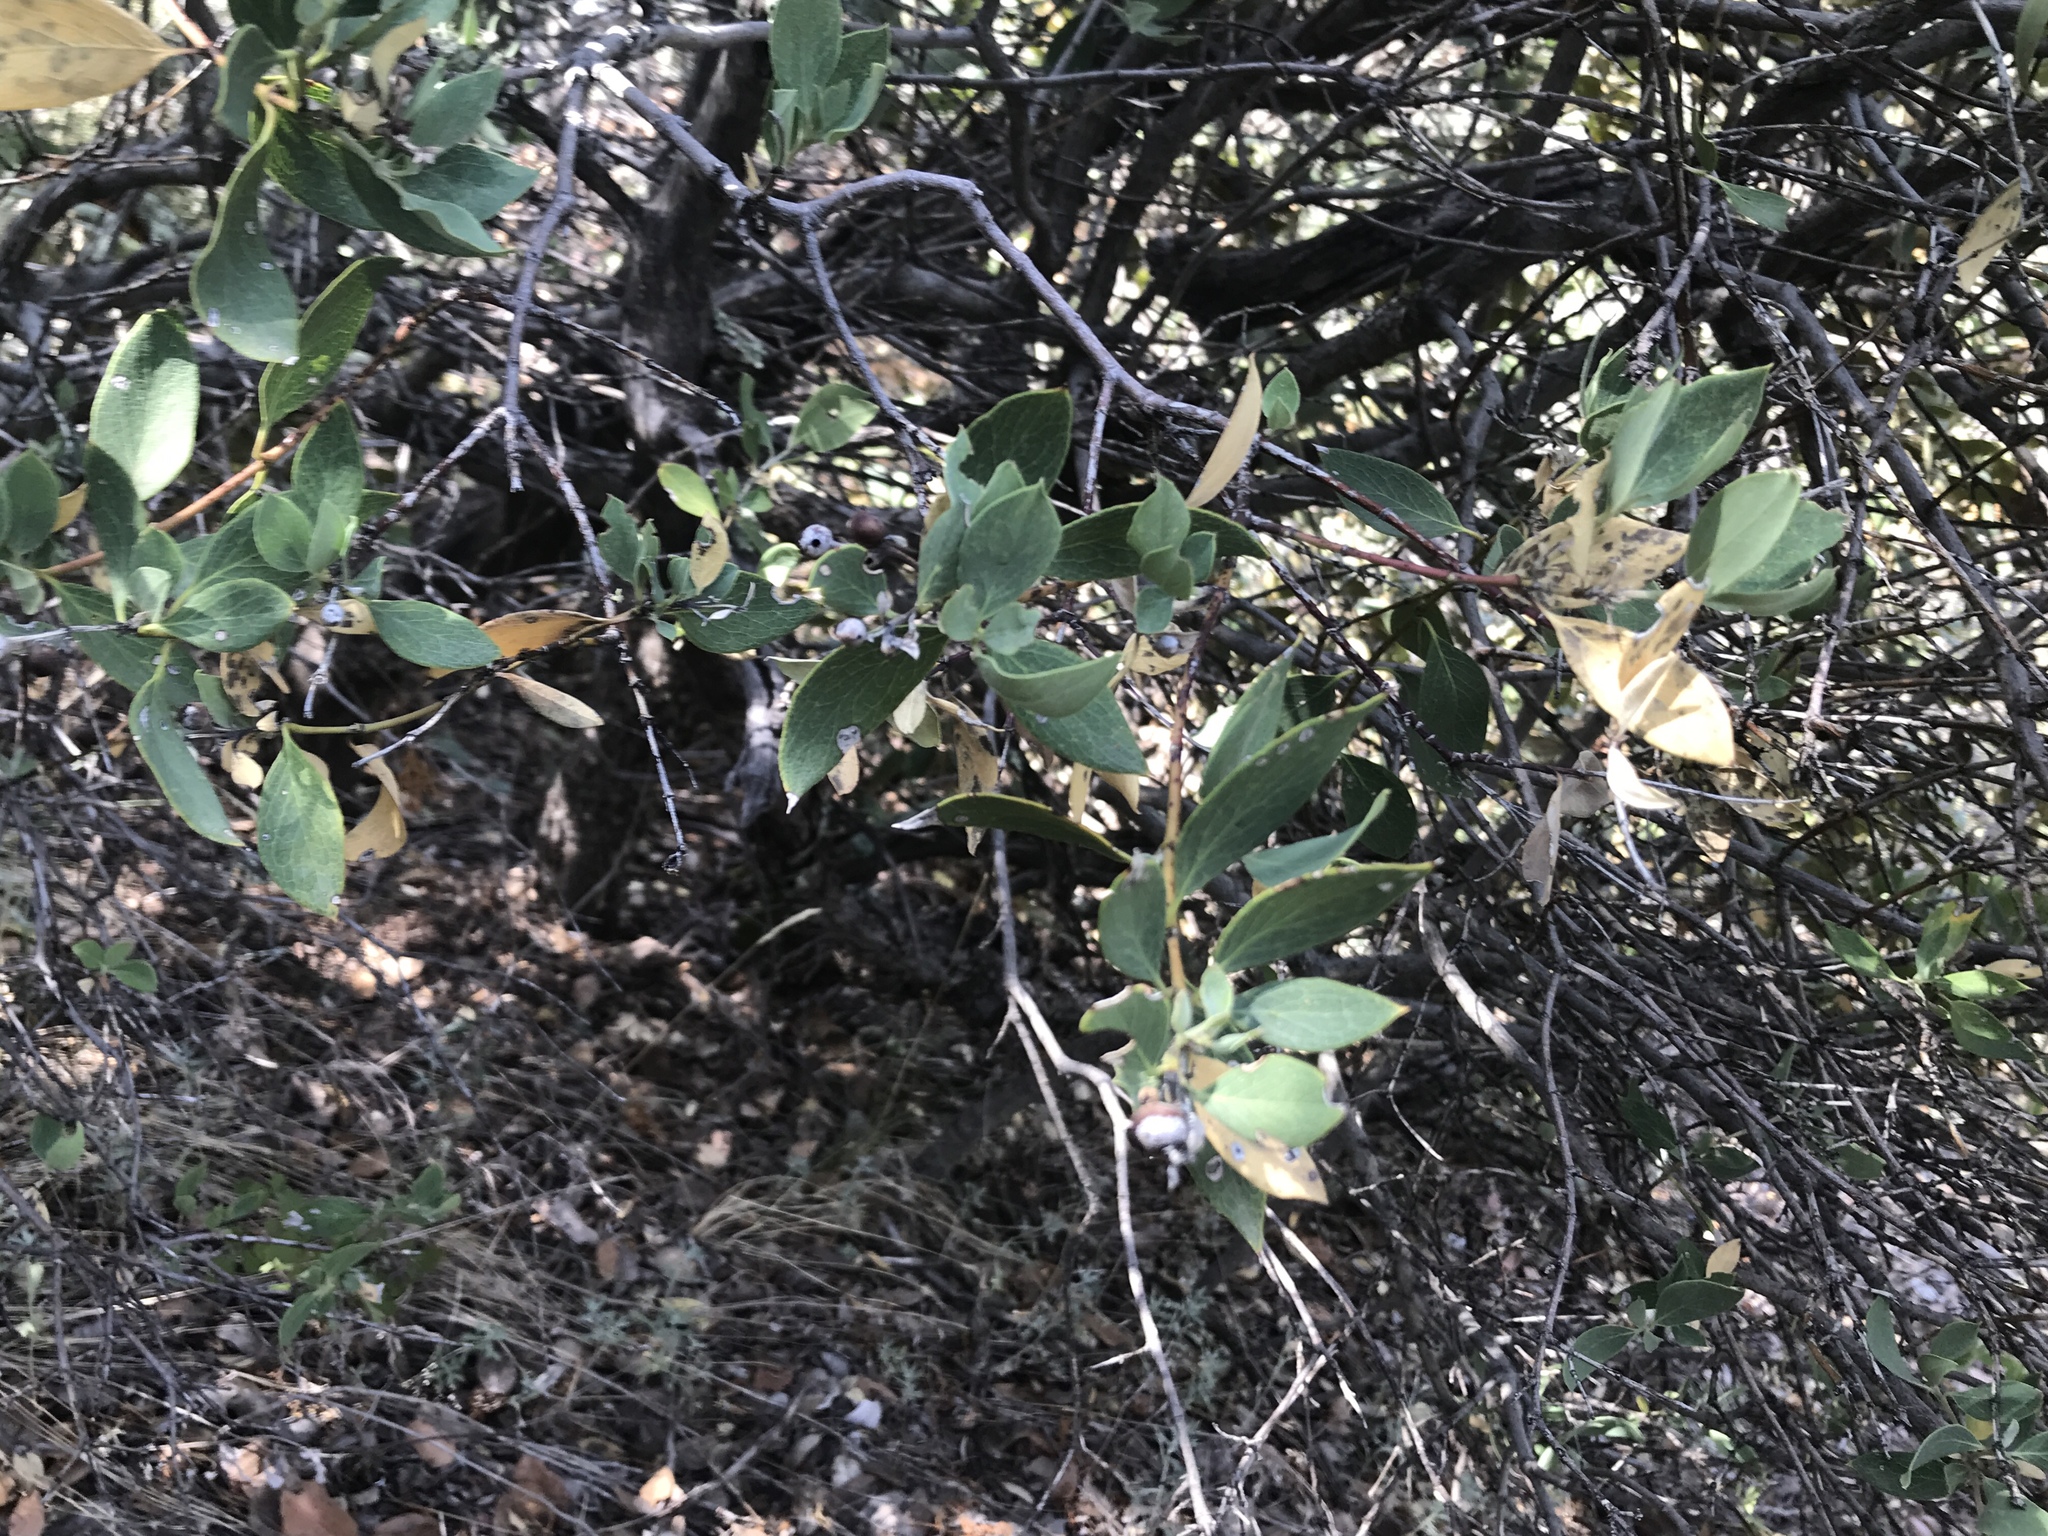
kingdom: Plantae
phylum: Tracheophyta
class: Magnoliopsida
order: Garryales
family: Garryaceae
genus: Garrya
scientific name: Garrya wrightii
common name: Wright's silktassel
